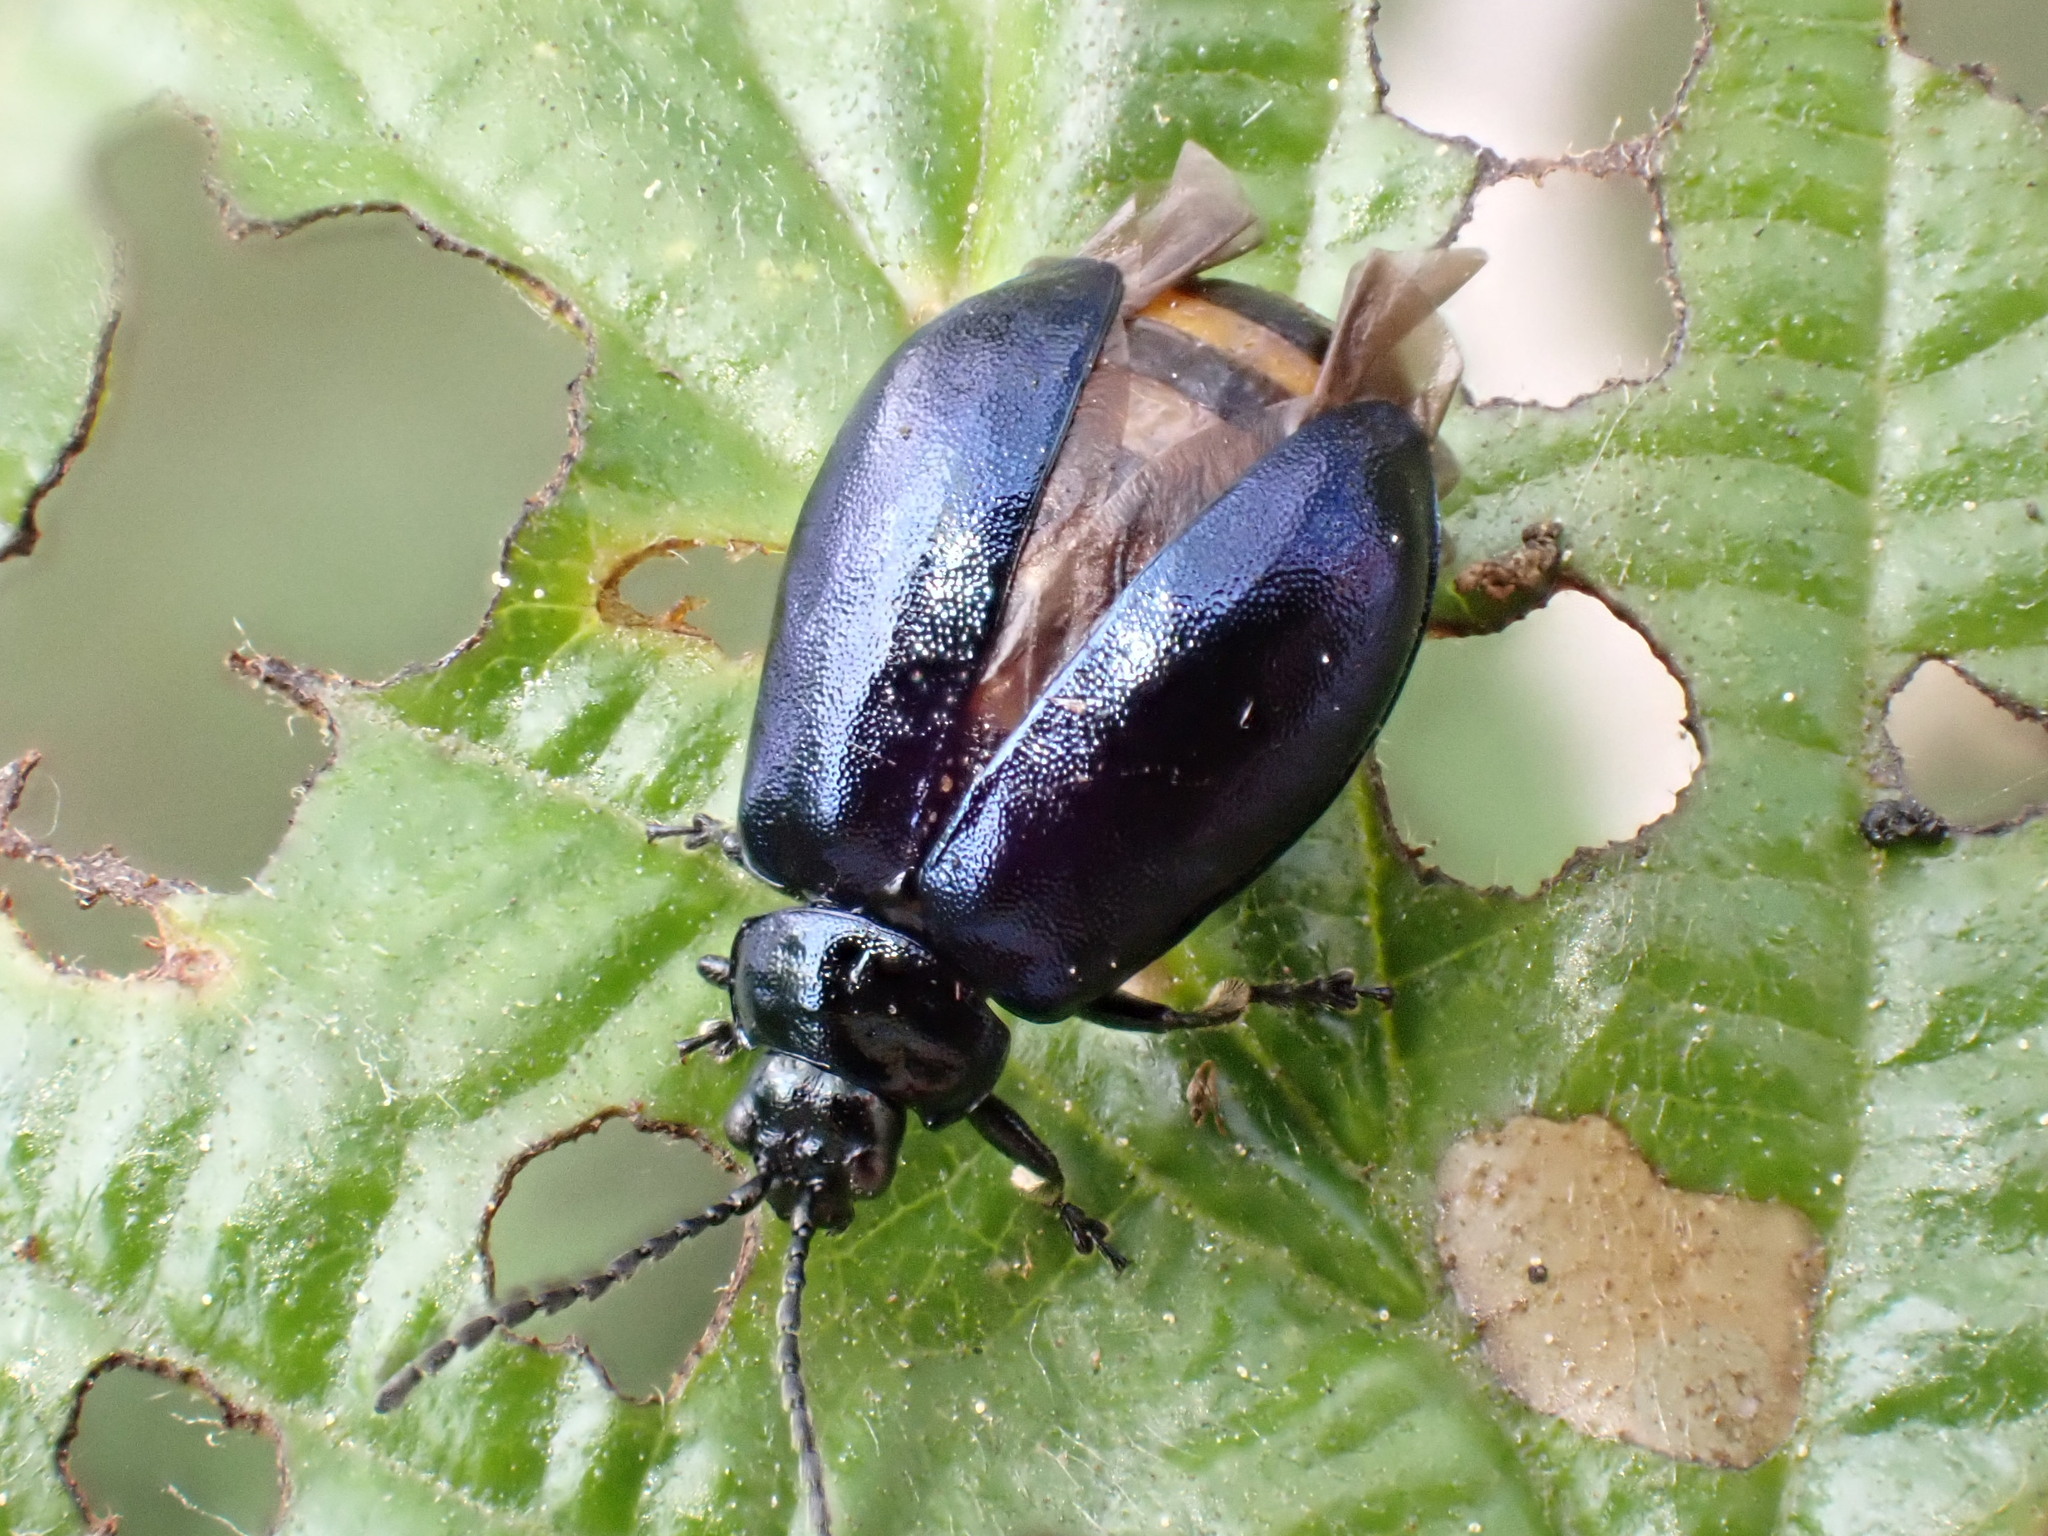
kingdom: Animalia
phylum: Arthropoda
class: Insecta
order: Coleoptera
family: Chrysomelidae
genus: Agelastica
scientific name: Agelastica alni
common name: Alder leaf beetle
